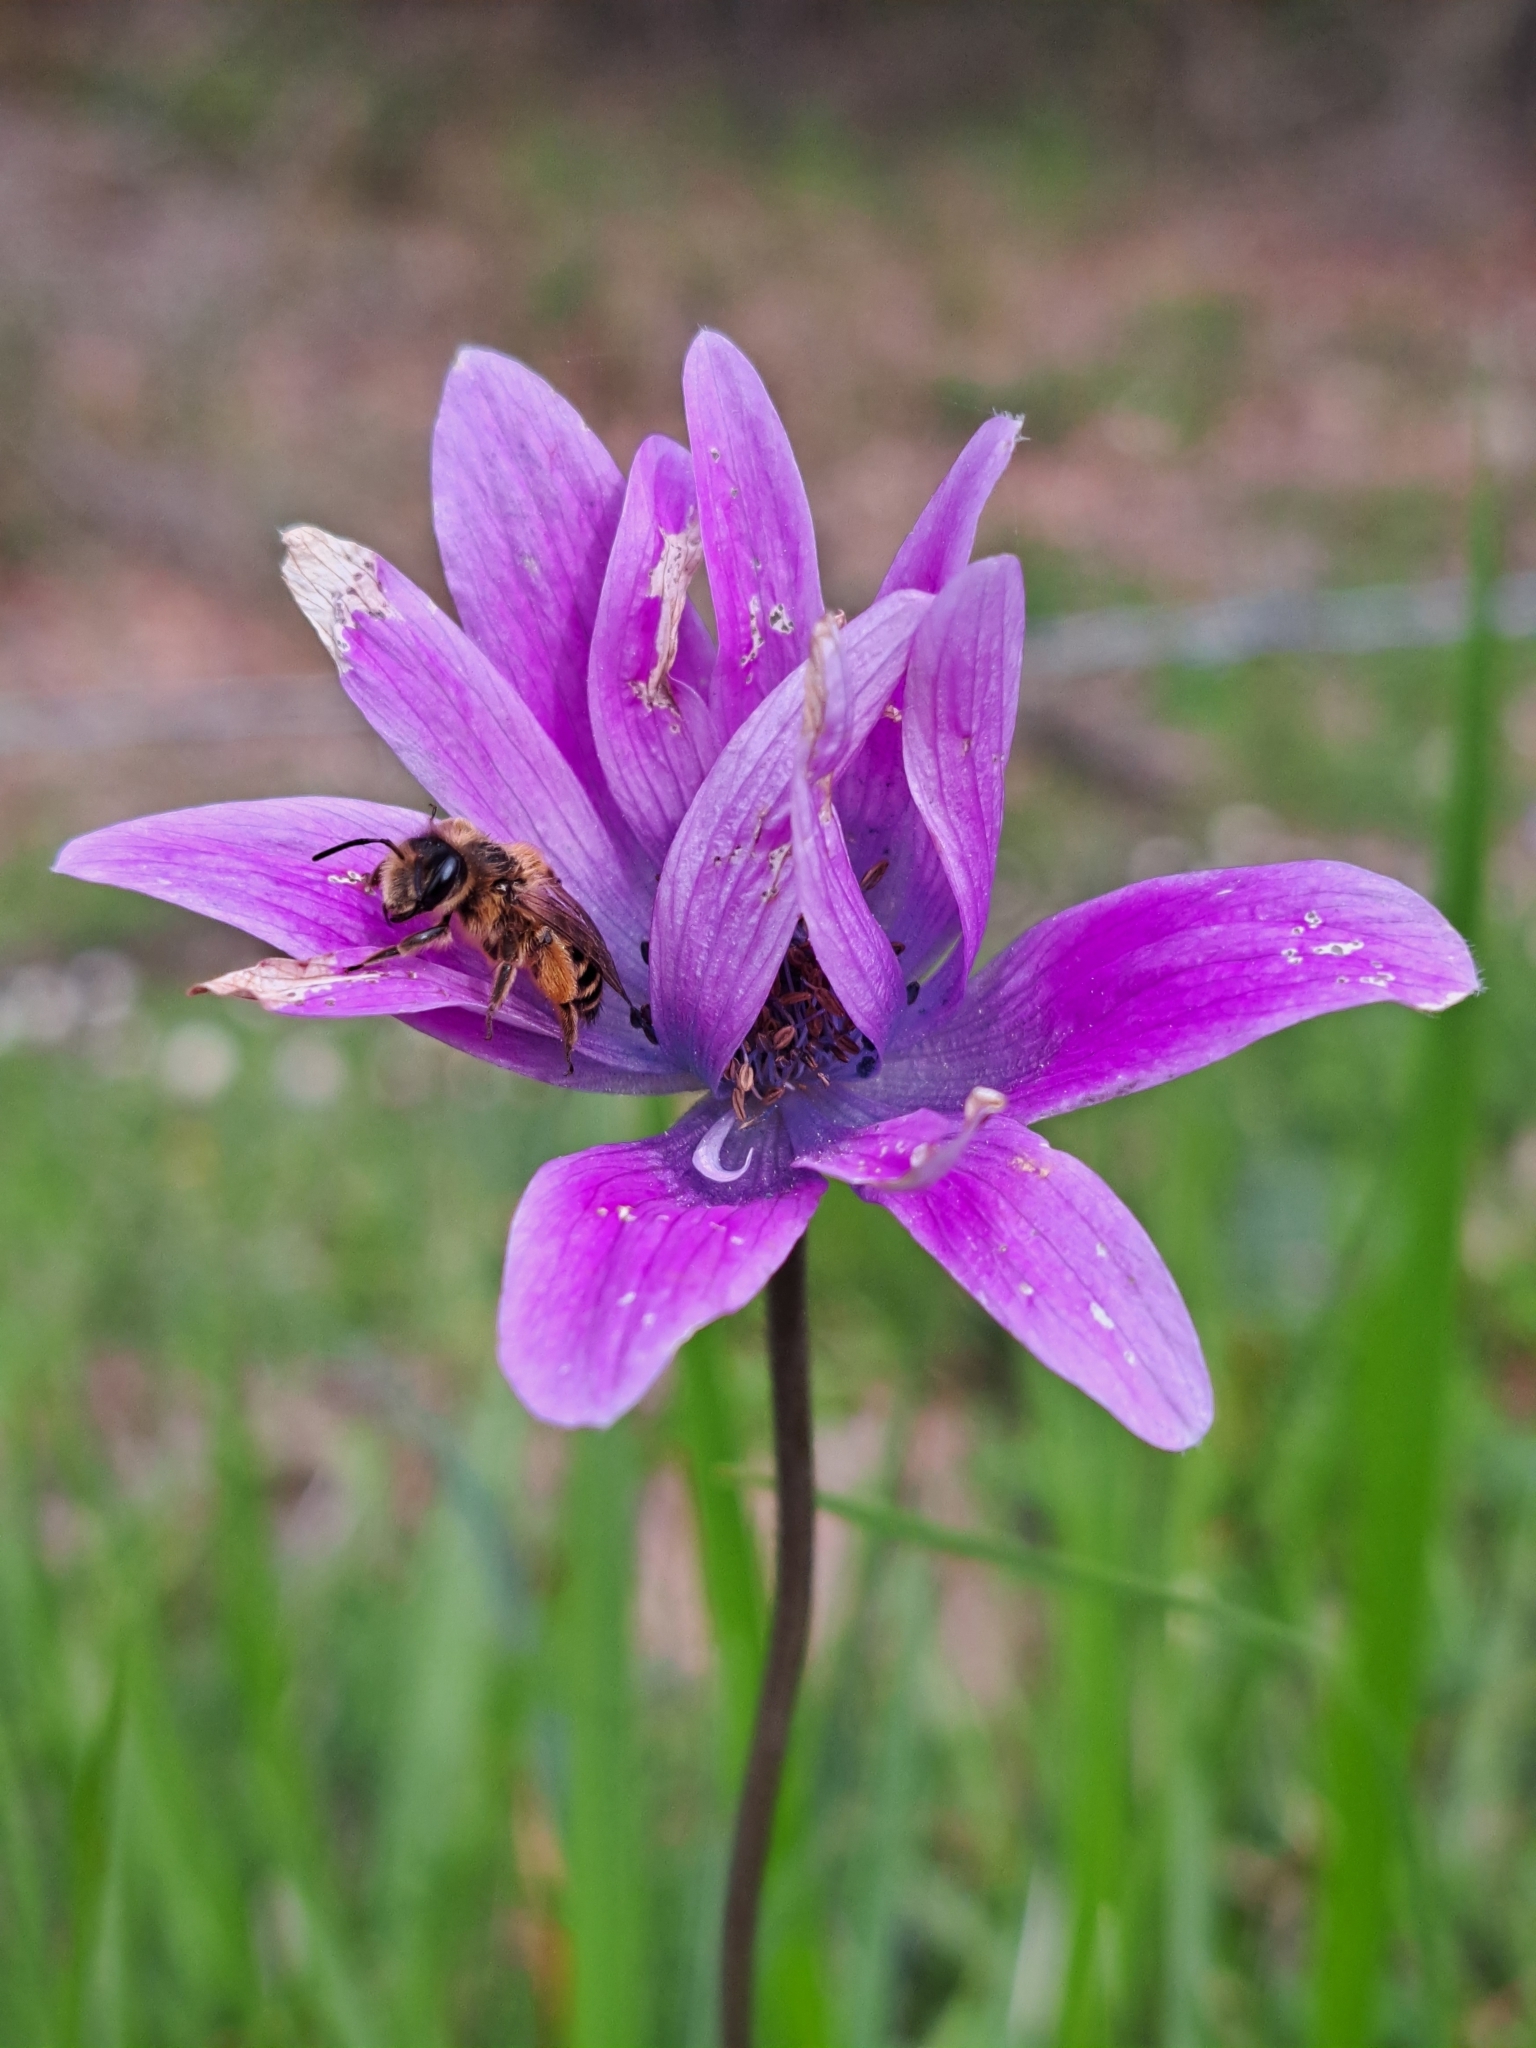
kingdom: Plantae
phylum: Tracheophyta
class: Magnoliopsida
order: Ranunculales
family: Ranunculaceae
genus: Anemone
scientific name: Anemone hortensis
